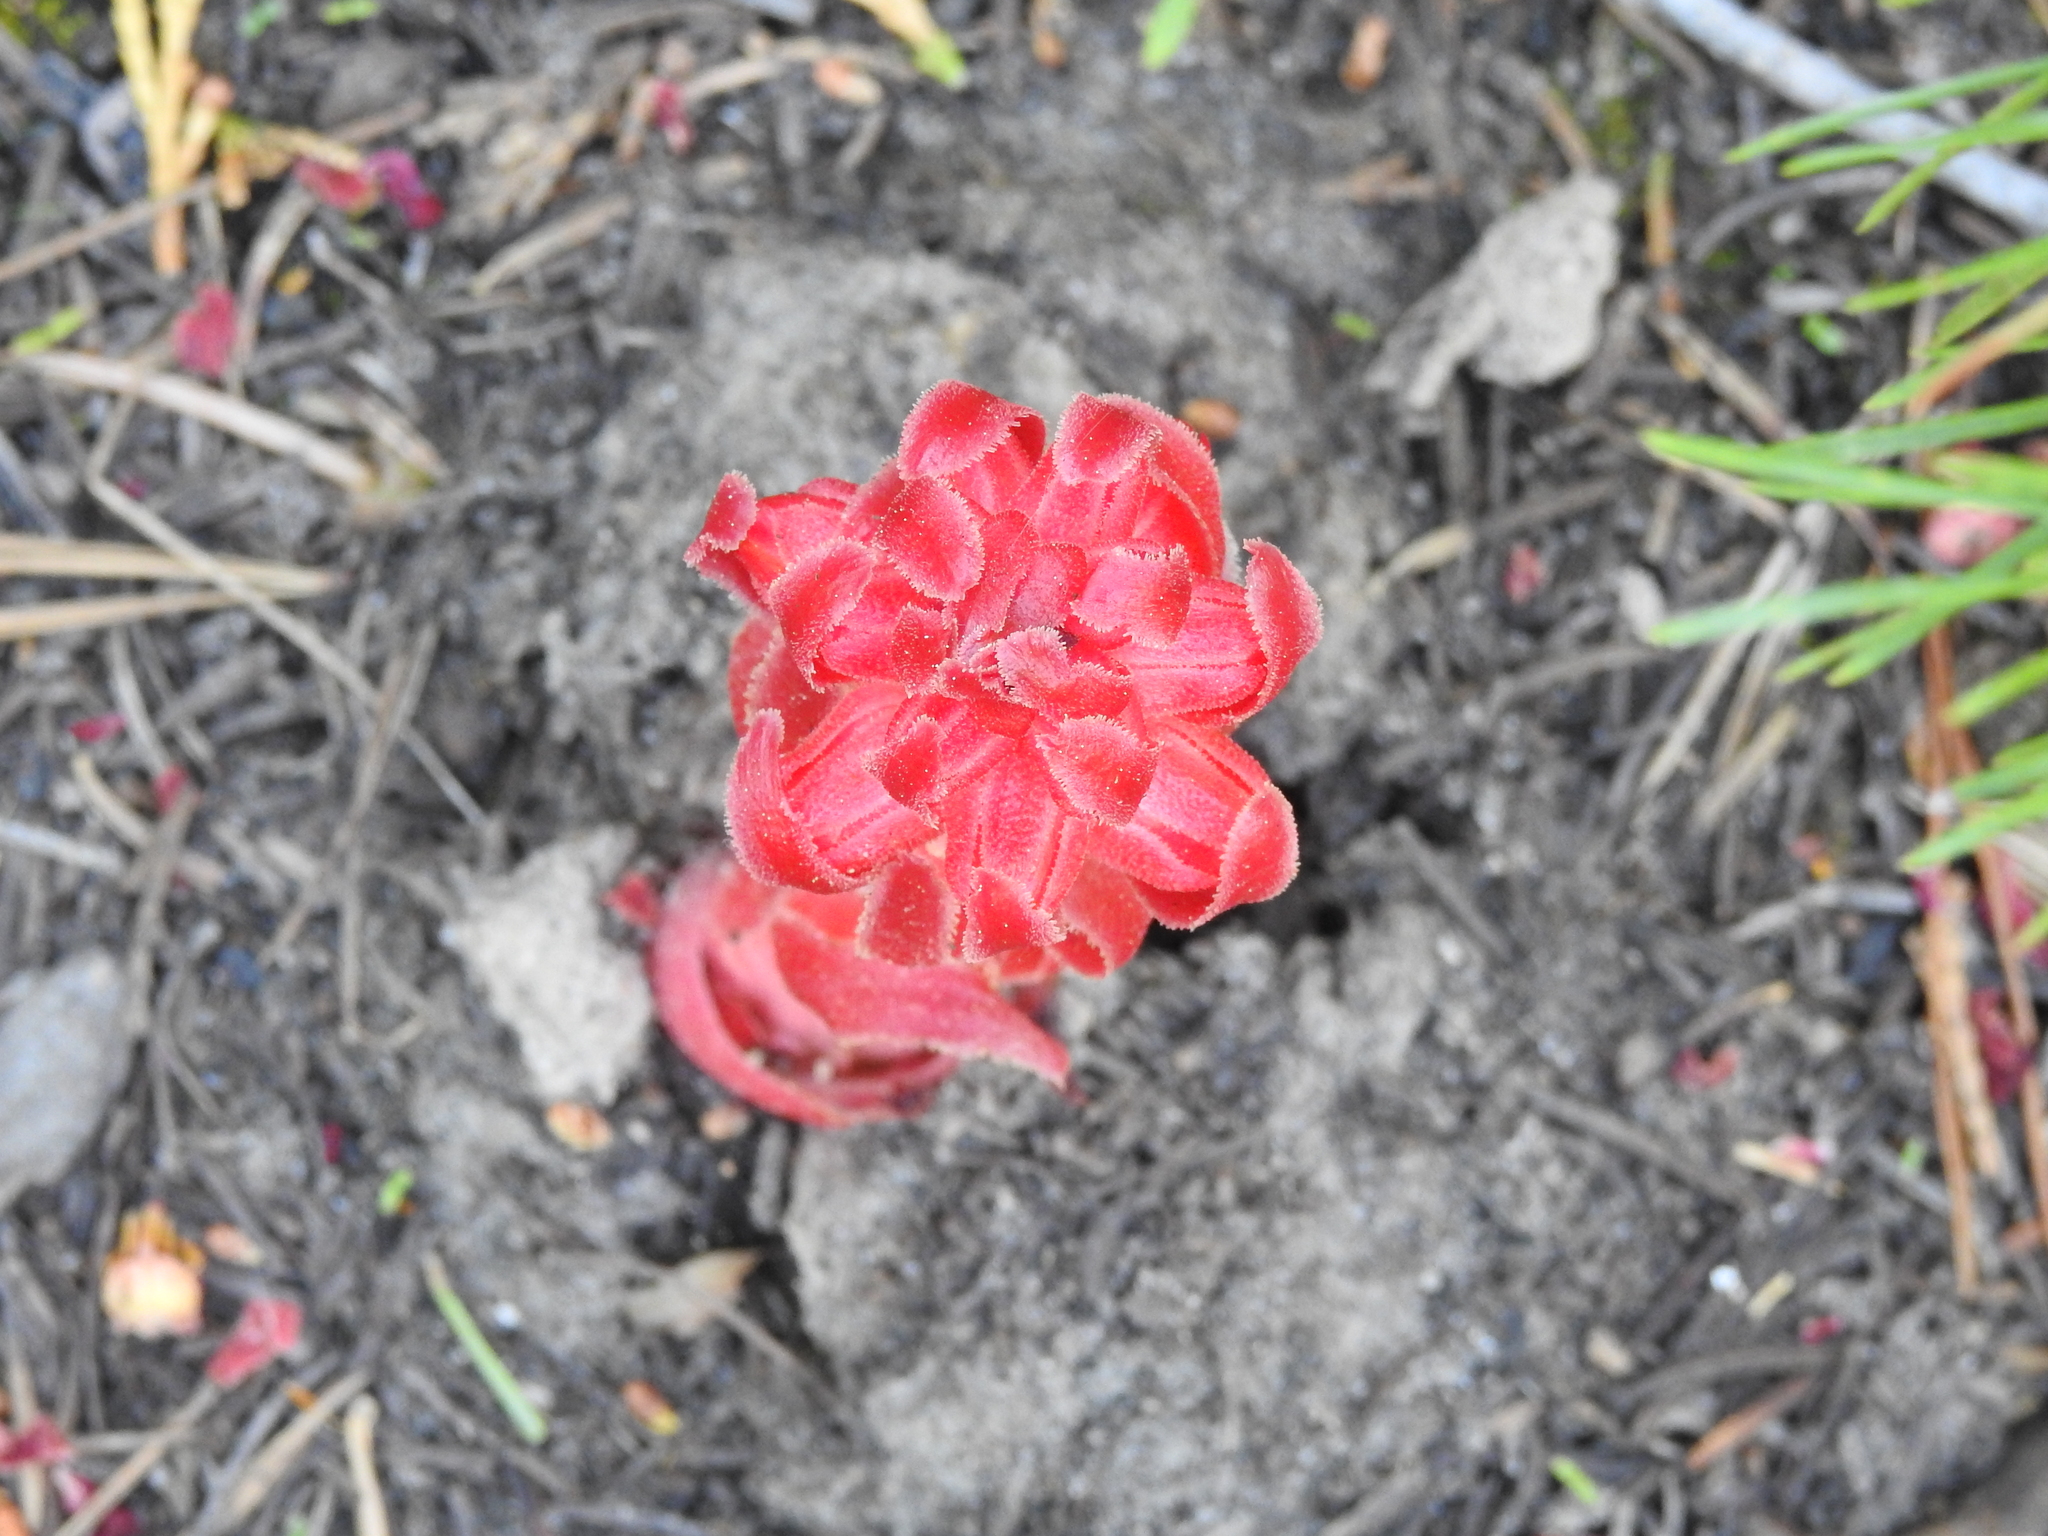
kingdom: Plantae
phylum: Tracheophyta
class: Magnoliopsida
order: Ericales
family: Ericaceae
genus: Sarcodes
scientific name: Sarcodes sanguinea
